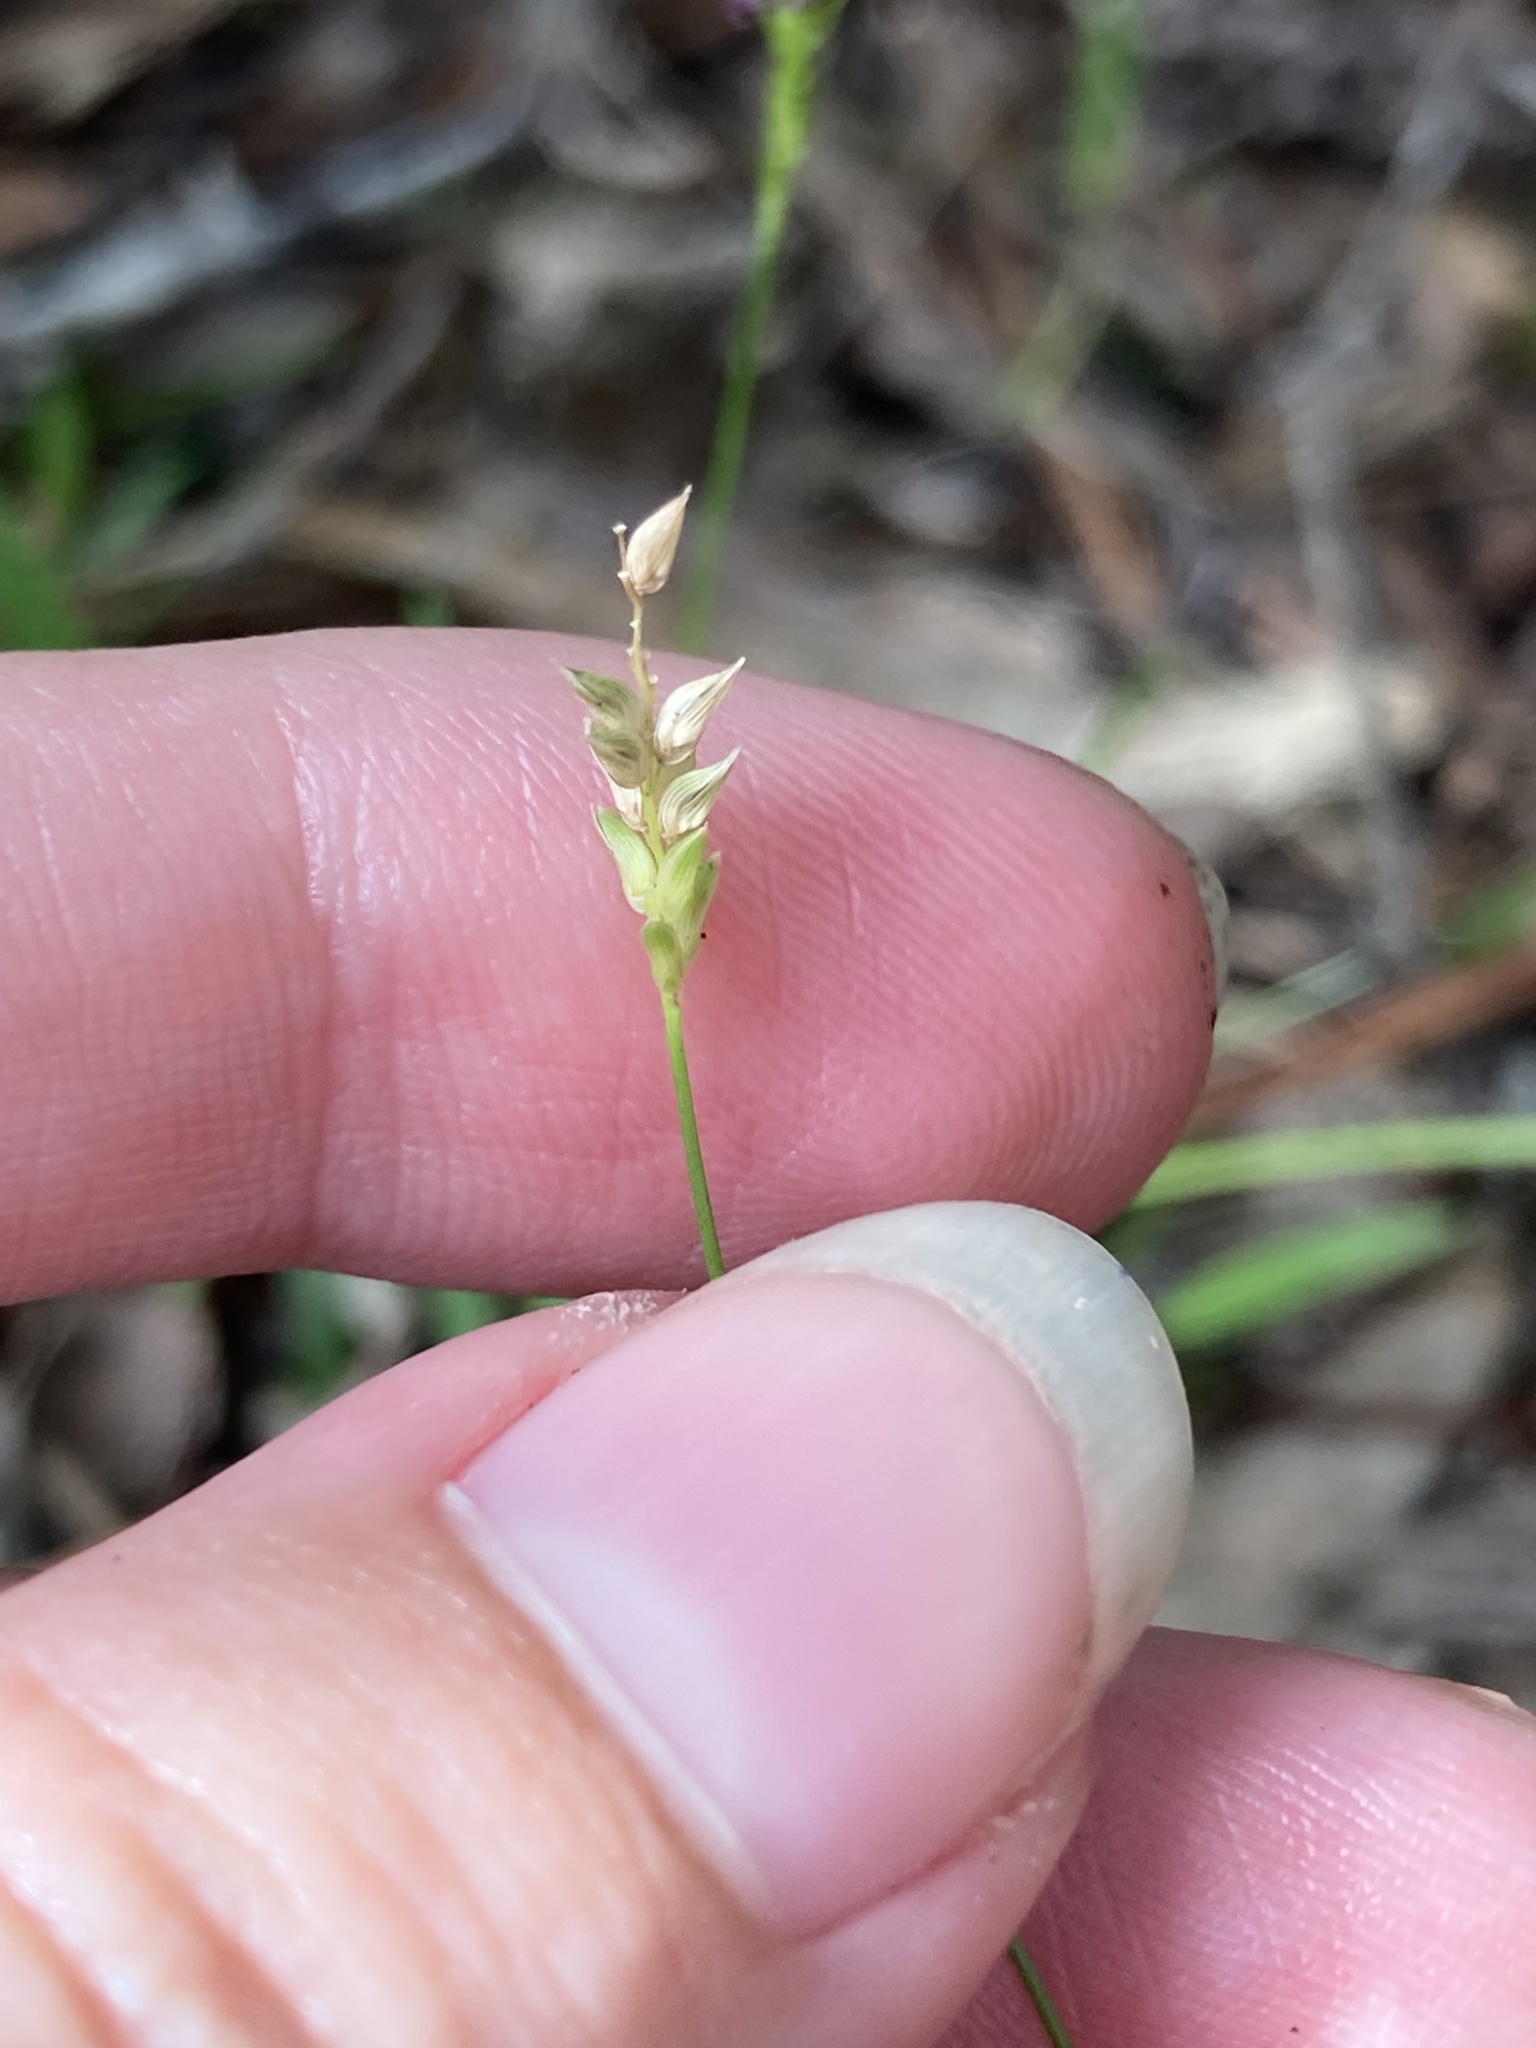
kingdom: Plantae
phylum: Tracheophyta
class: Liliopsida
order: Poales
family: Poaceae
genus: Sacciolepis
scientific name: Sacciolepis indica
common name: Glenwoodgrass
